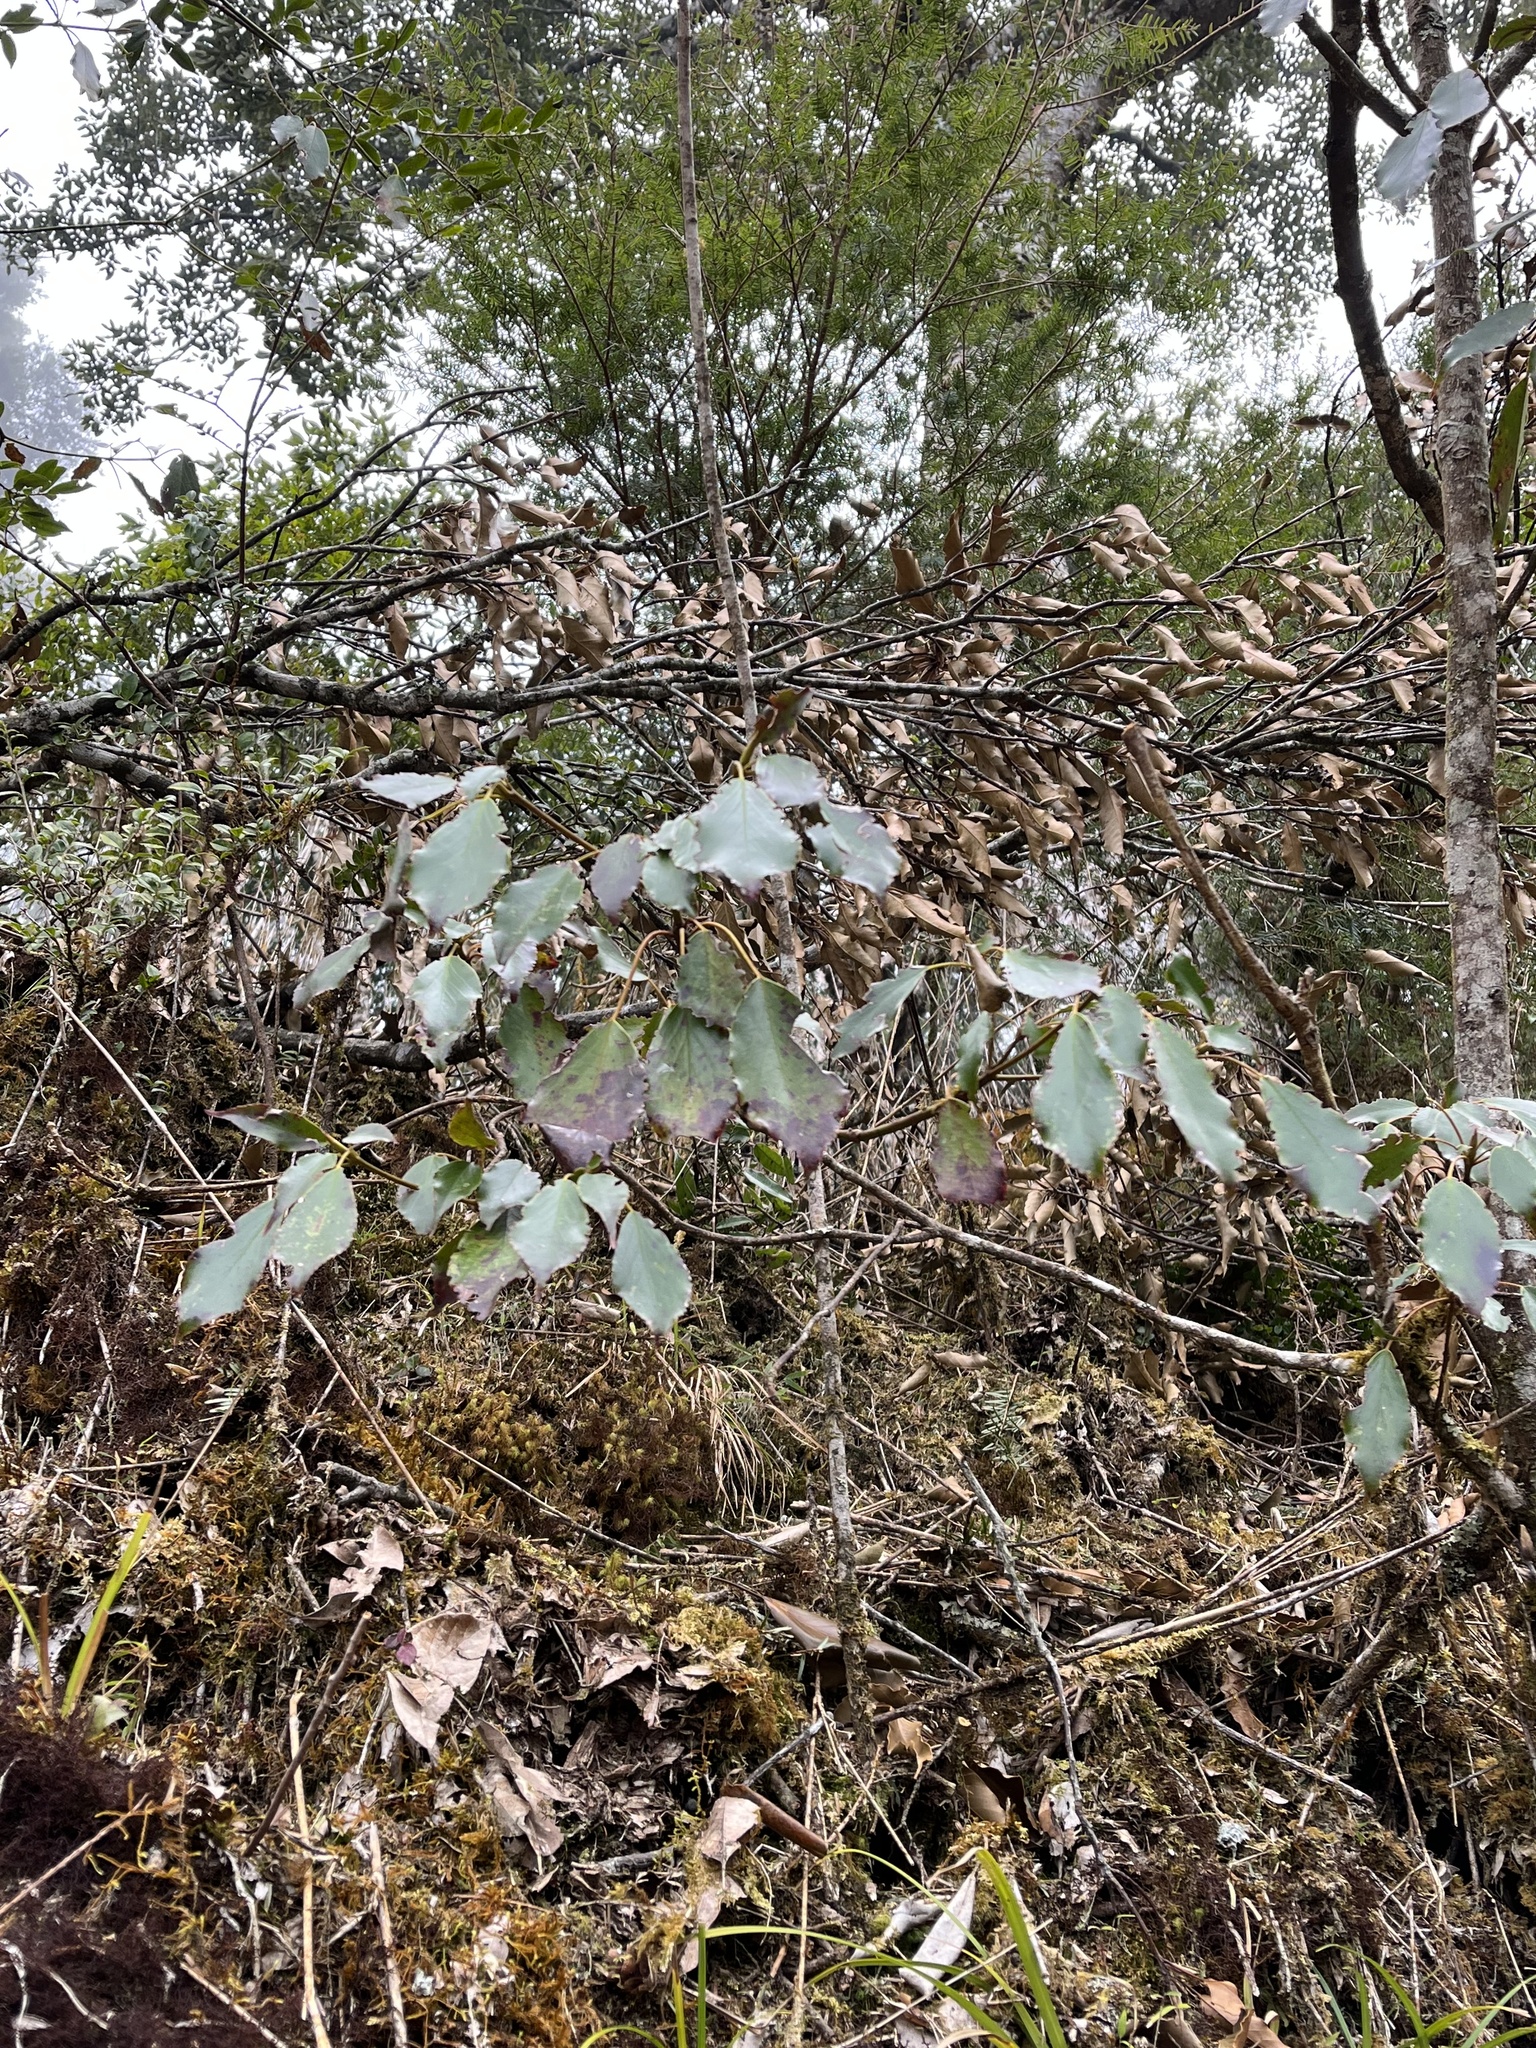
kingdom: Plantae
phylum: Tracheophyta
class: Magnoliopsida
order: Trochodendrales
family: Trochodendraceae
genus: Trochodendron
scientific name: Trochodendron aralioides
